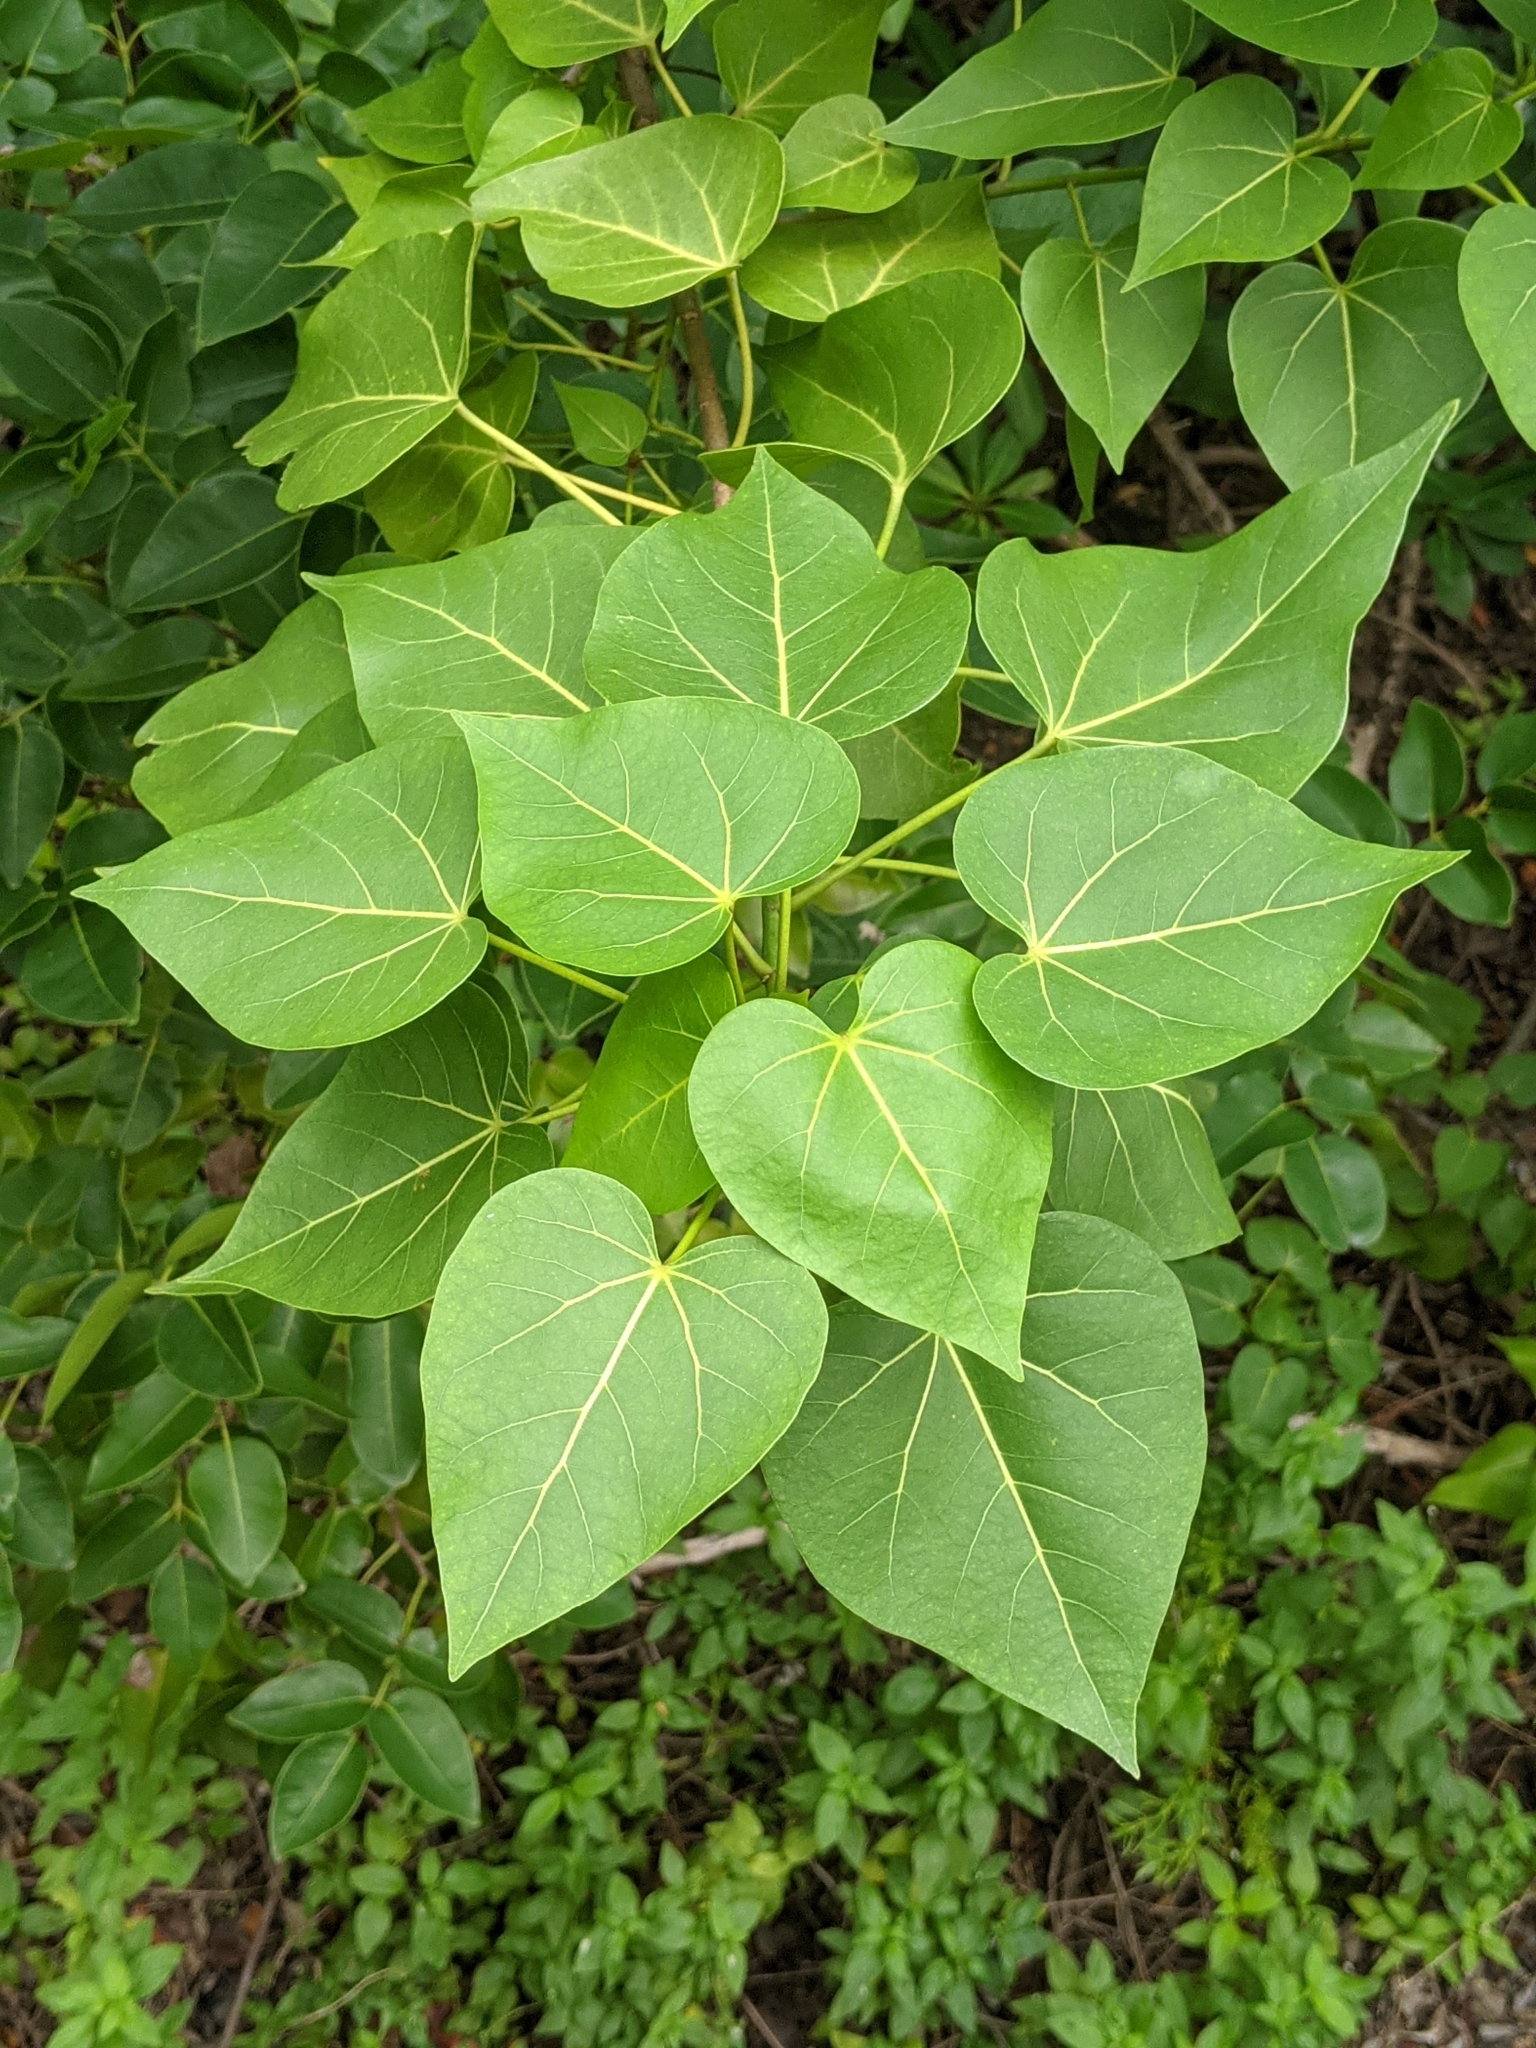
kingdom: Plantae
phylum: Tracheophyta
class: Magnoliopsida
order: Malvales
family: Malvaceae
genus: Thespesia
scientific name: Thespesia populnea
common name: Seaside mahoe
